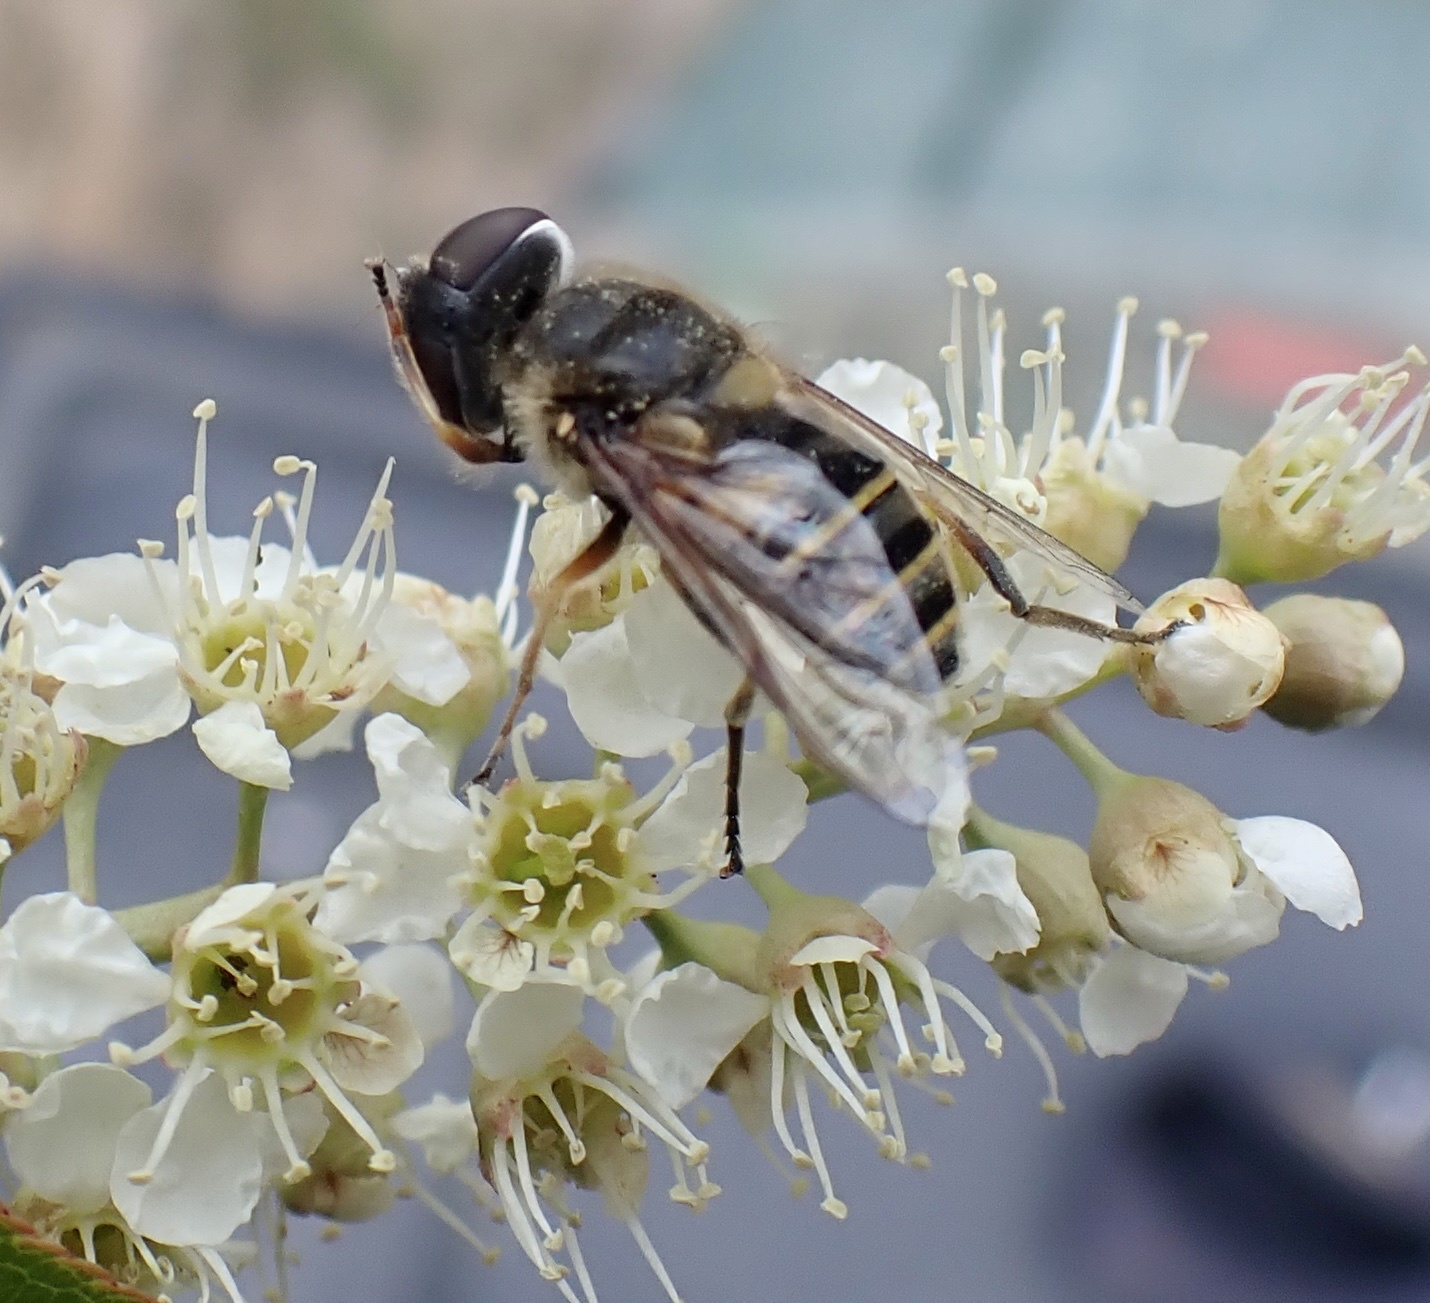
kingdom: Animalia
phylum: Arthropoda
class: Insecta
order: Diptera
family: Syrphidae
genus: Eristalis
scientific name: Eristalis transversa
